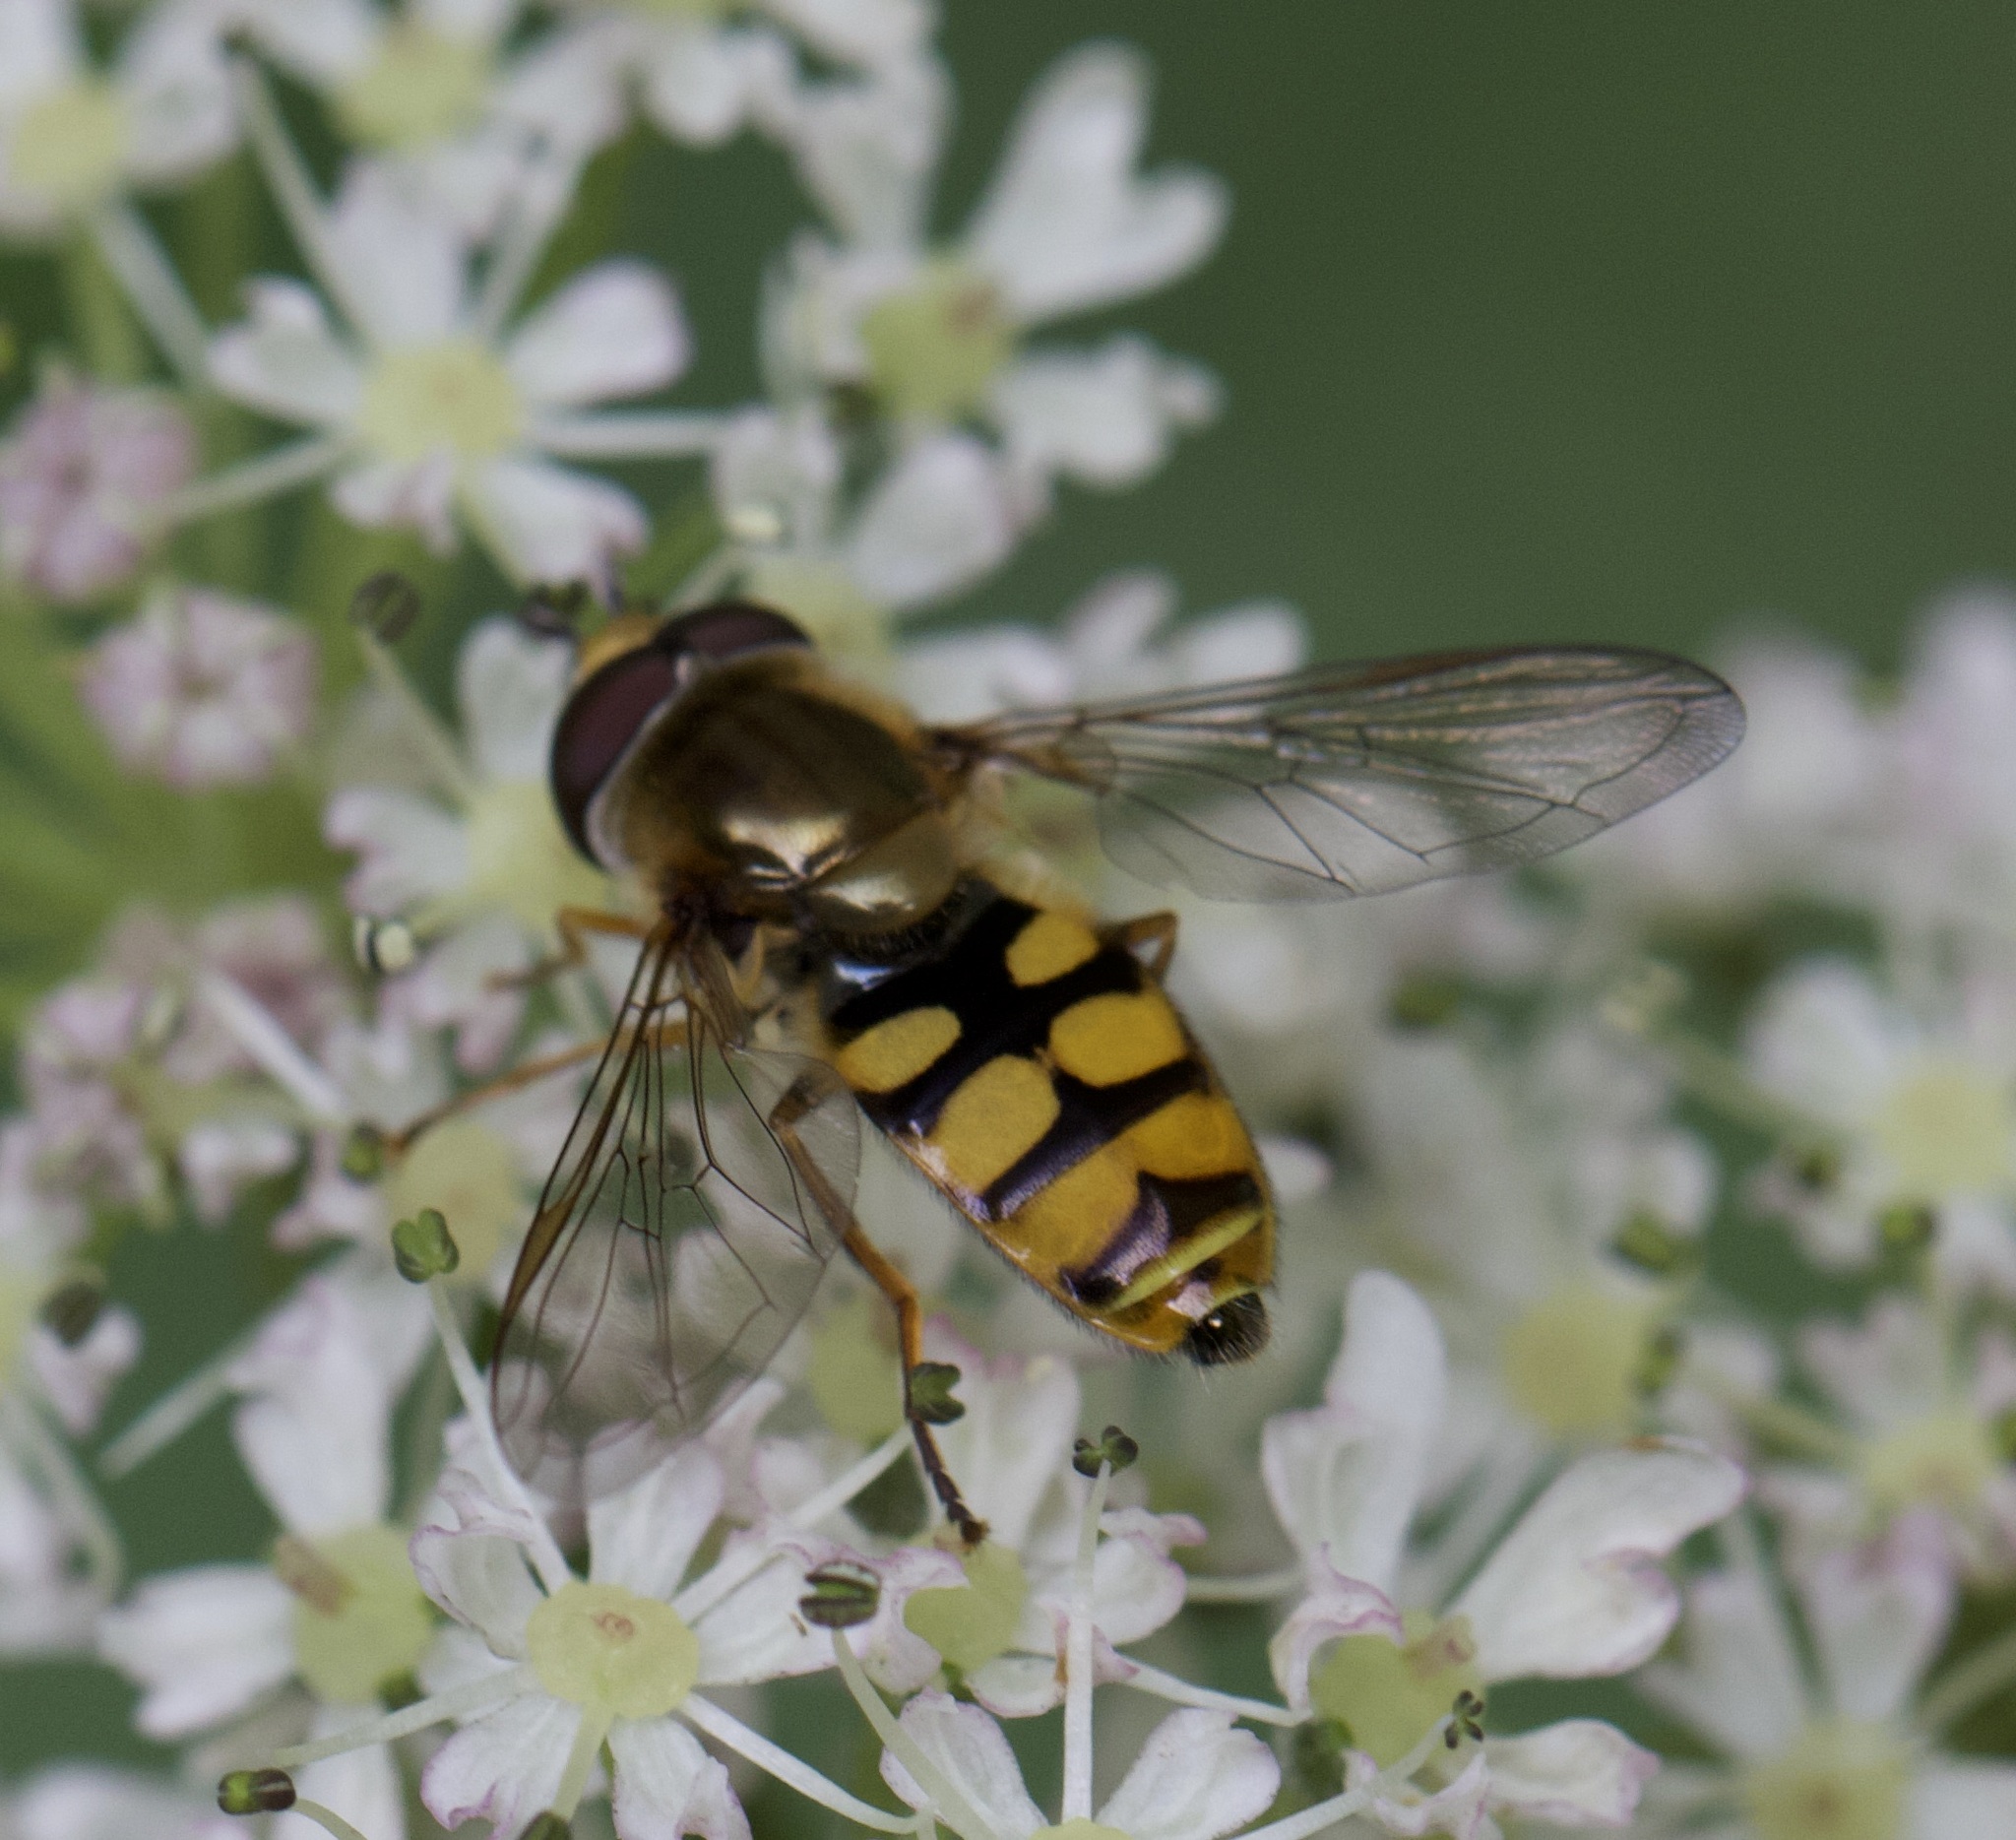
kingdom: Animalia
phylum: Arthropoda
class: Insecta
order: Diptera
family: Syrphidae
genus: Eupeodes
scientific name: Eupeodes corollae
